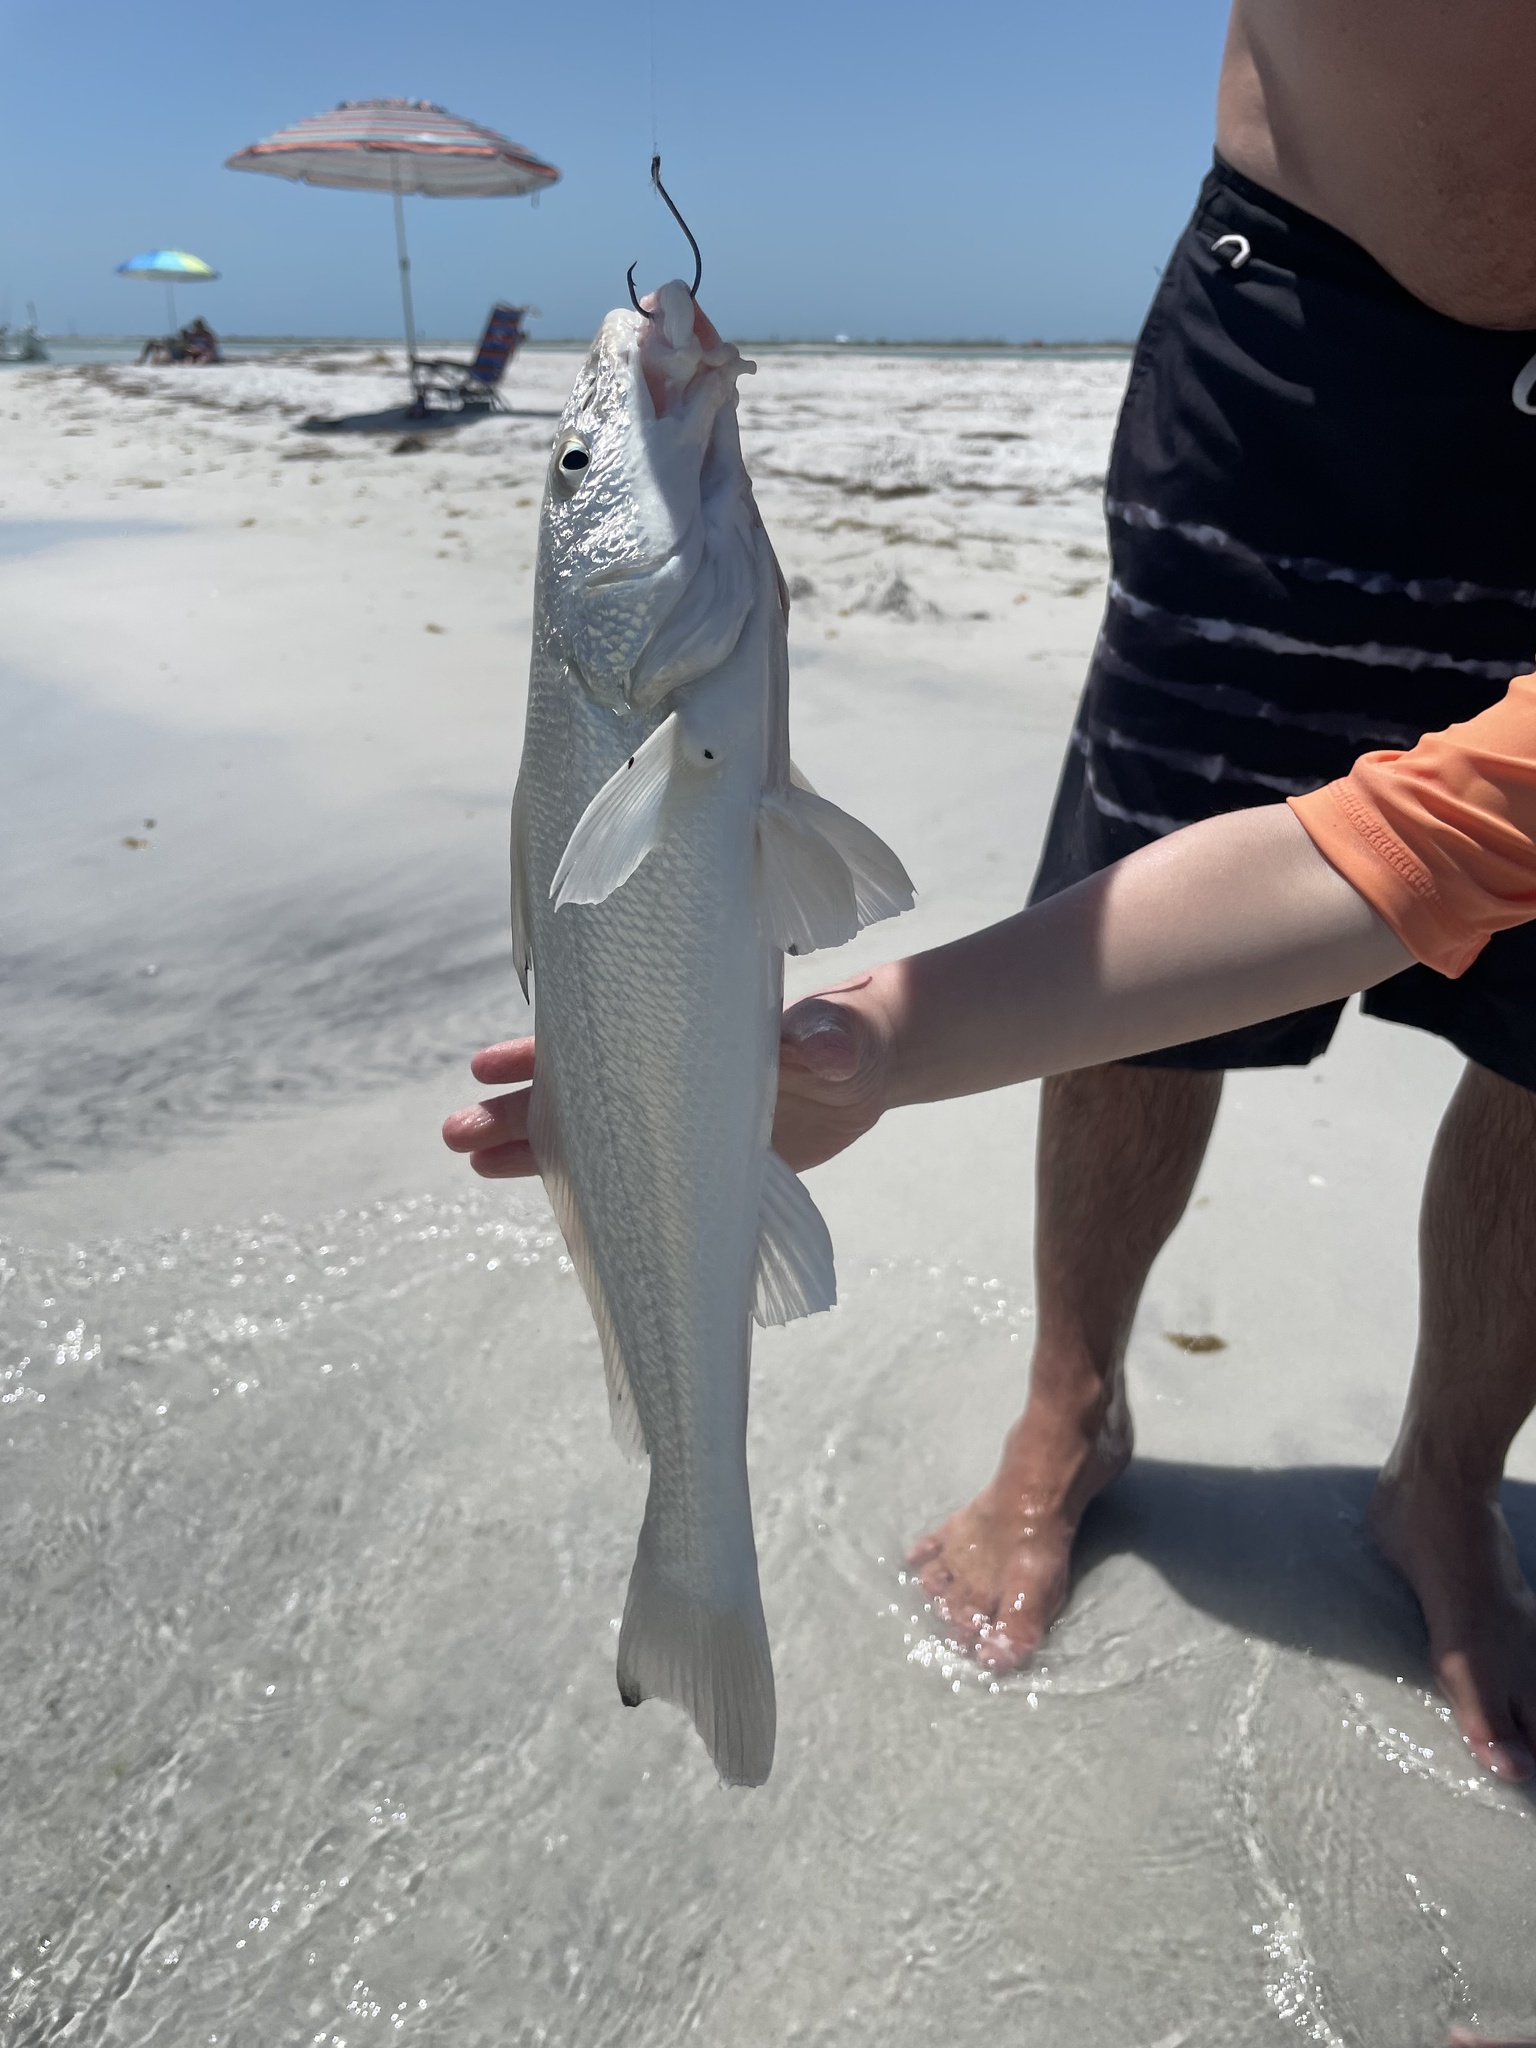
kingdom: Animalia
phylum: Chordata
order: Perciformes
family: Sciaenidae
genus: Menticirrhus
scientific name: Menticirrhus littoralis
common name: Gulf kingcroaker
